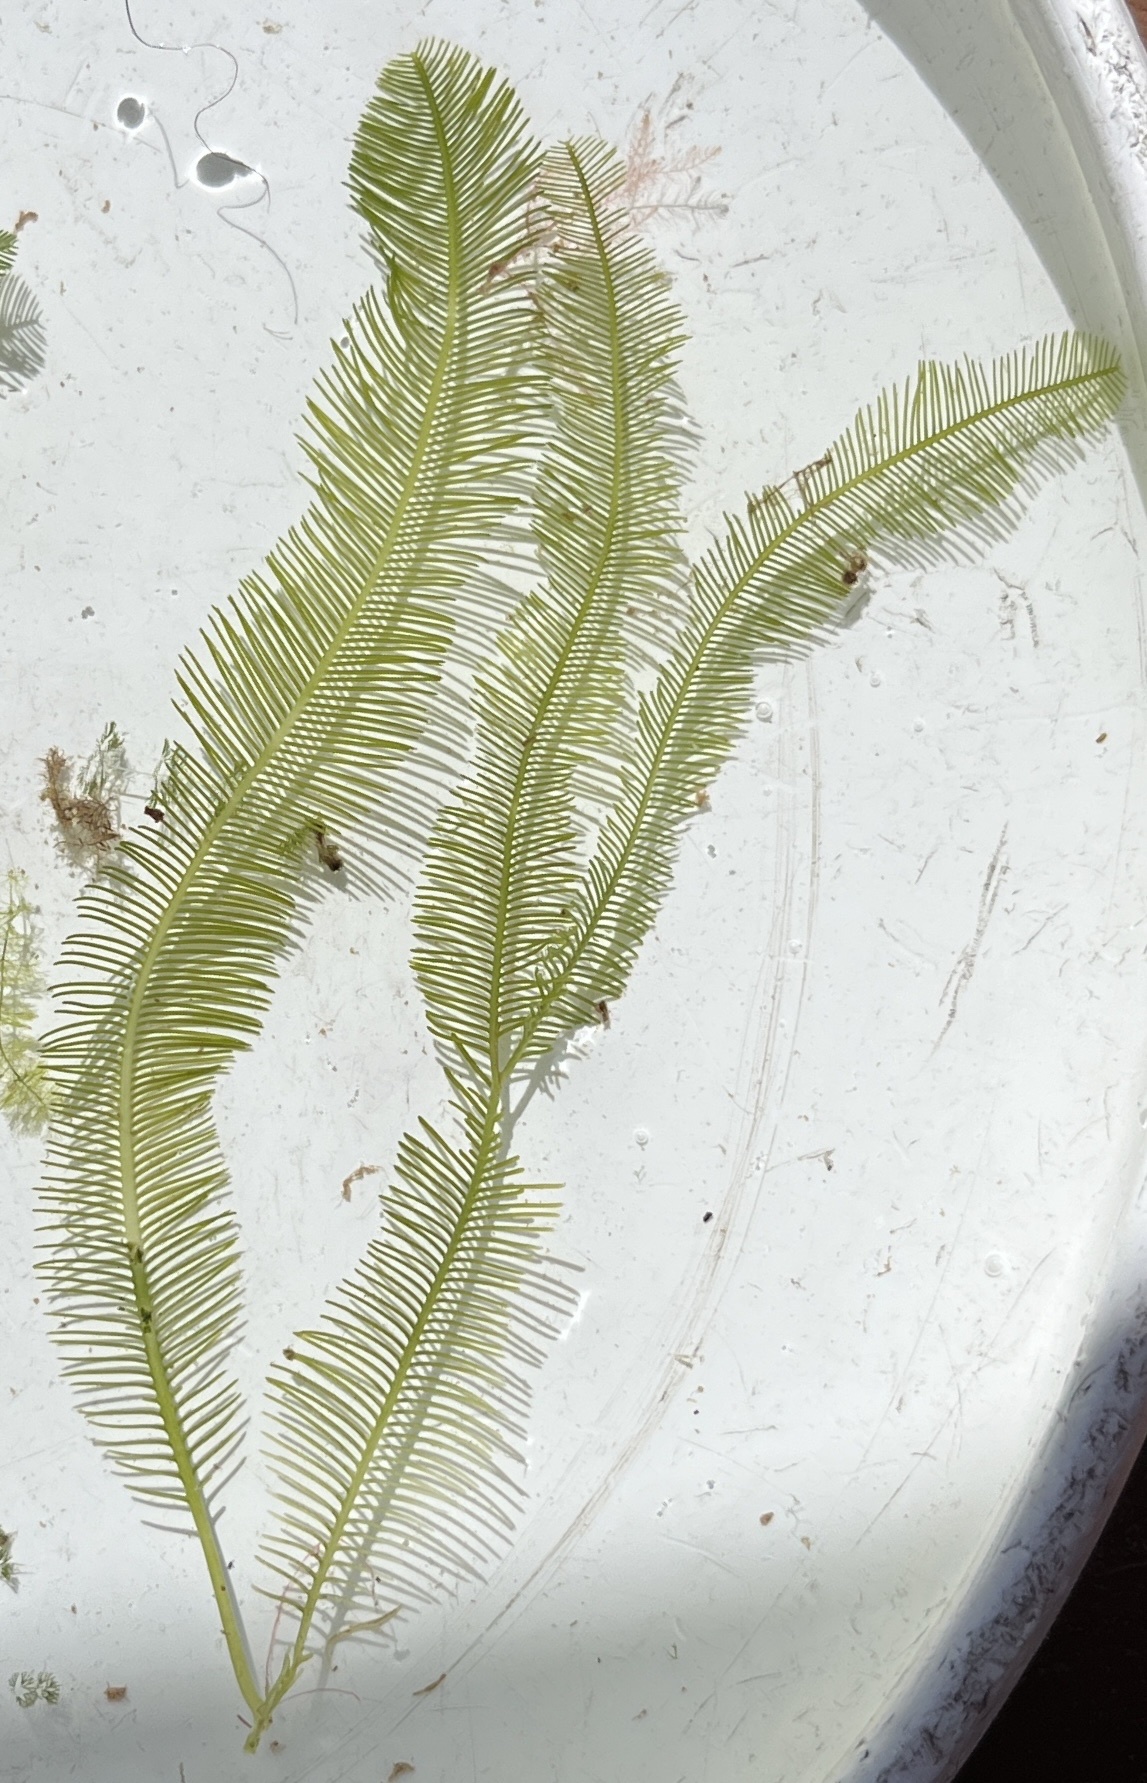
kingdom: Plantae
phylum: Chlorophyta
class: Ulvophyceae
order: Bryopsidales
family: Caulerpaceae
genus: Caulerpa
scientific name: Caulerpa sertularioides
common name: Green feather algae
